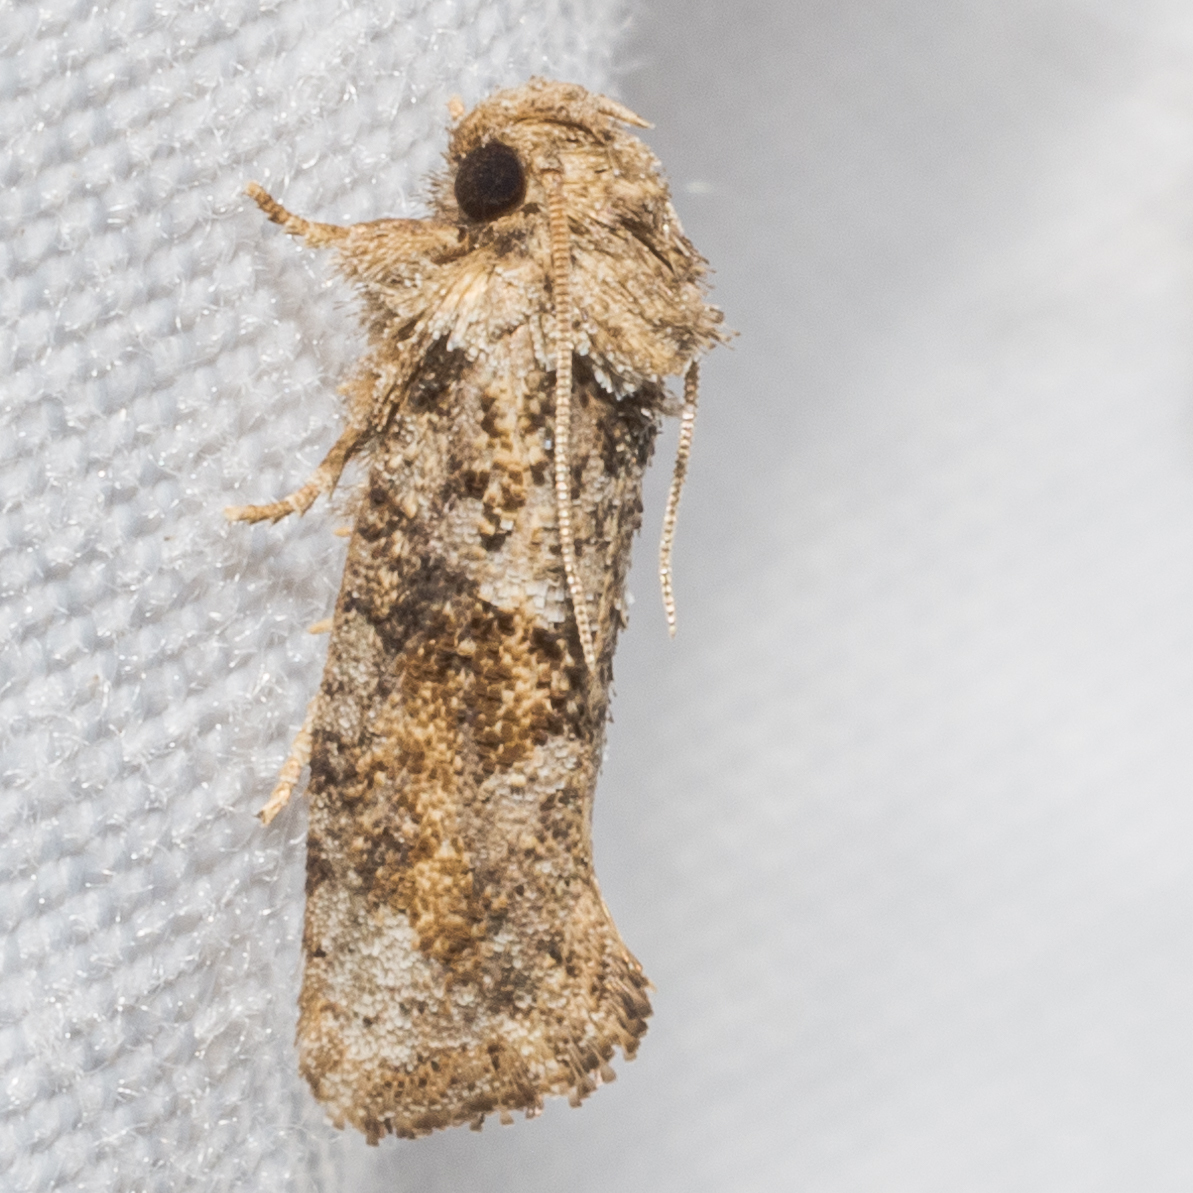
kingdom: Animalia
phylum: Arthropoda
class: Insecta
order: Lepidoptera
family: Tineidae
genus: Acrolophus
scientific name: Acrolophus piger
